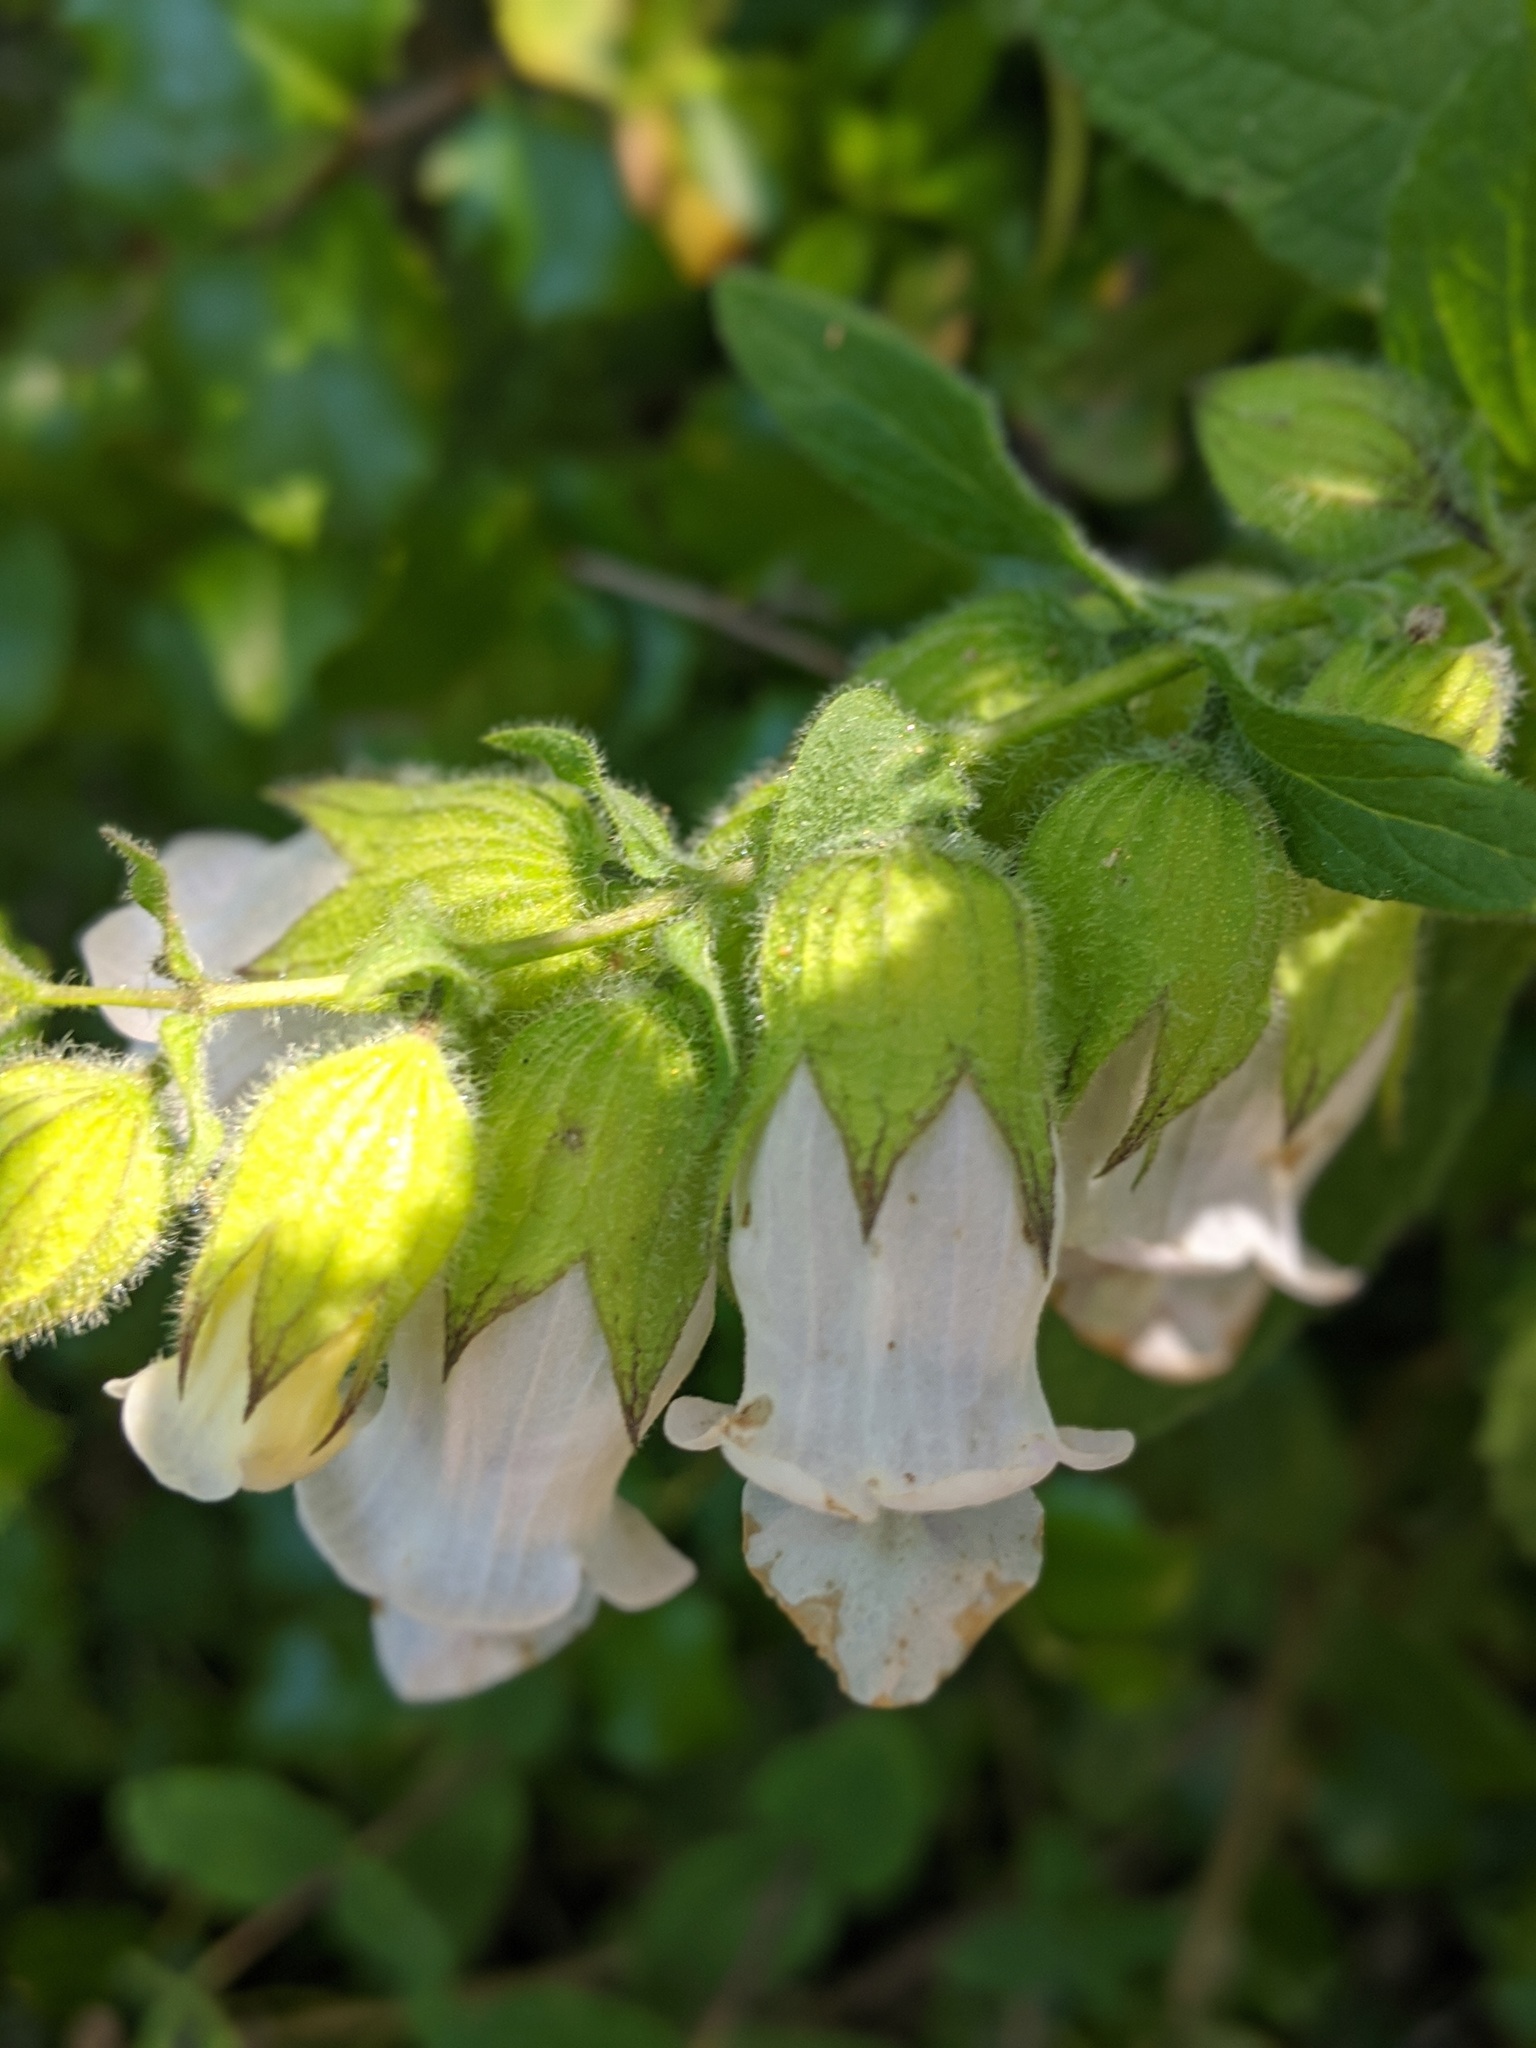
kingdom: Plantae
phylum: Tracheophyta
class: Magnoliopsida
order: Lamiales
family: Lamiaceae
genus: Lepechinia
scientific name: Lepechinia calycina
